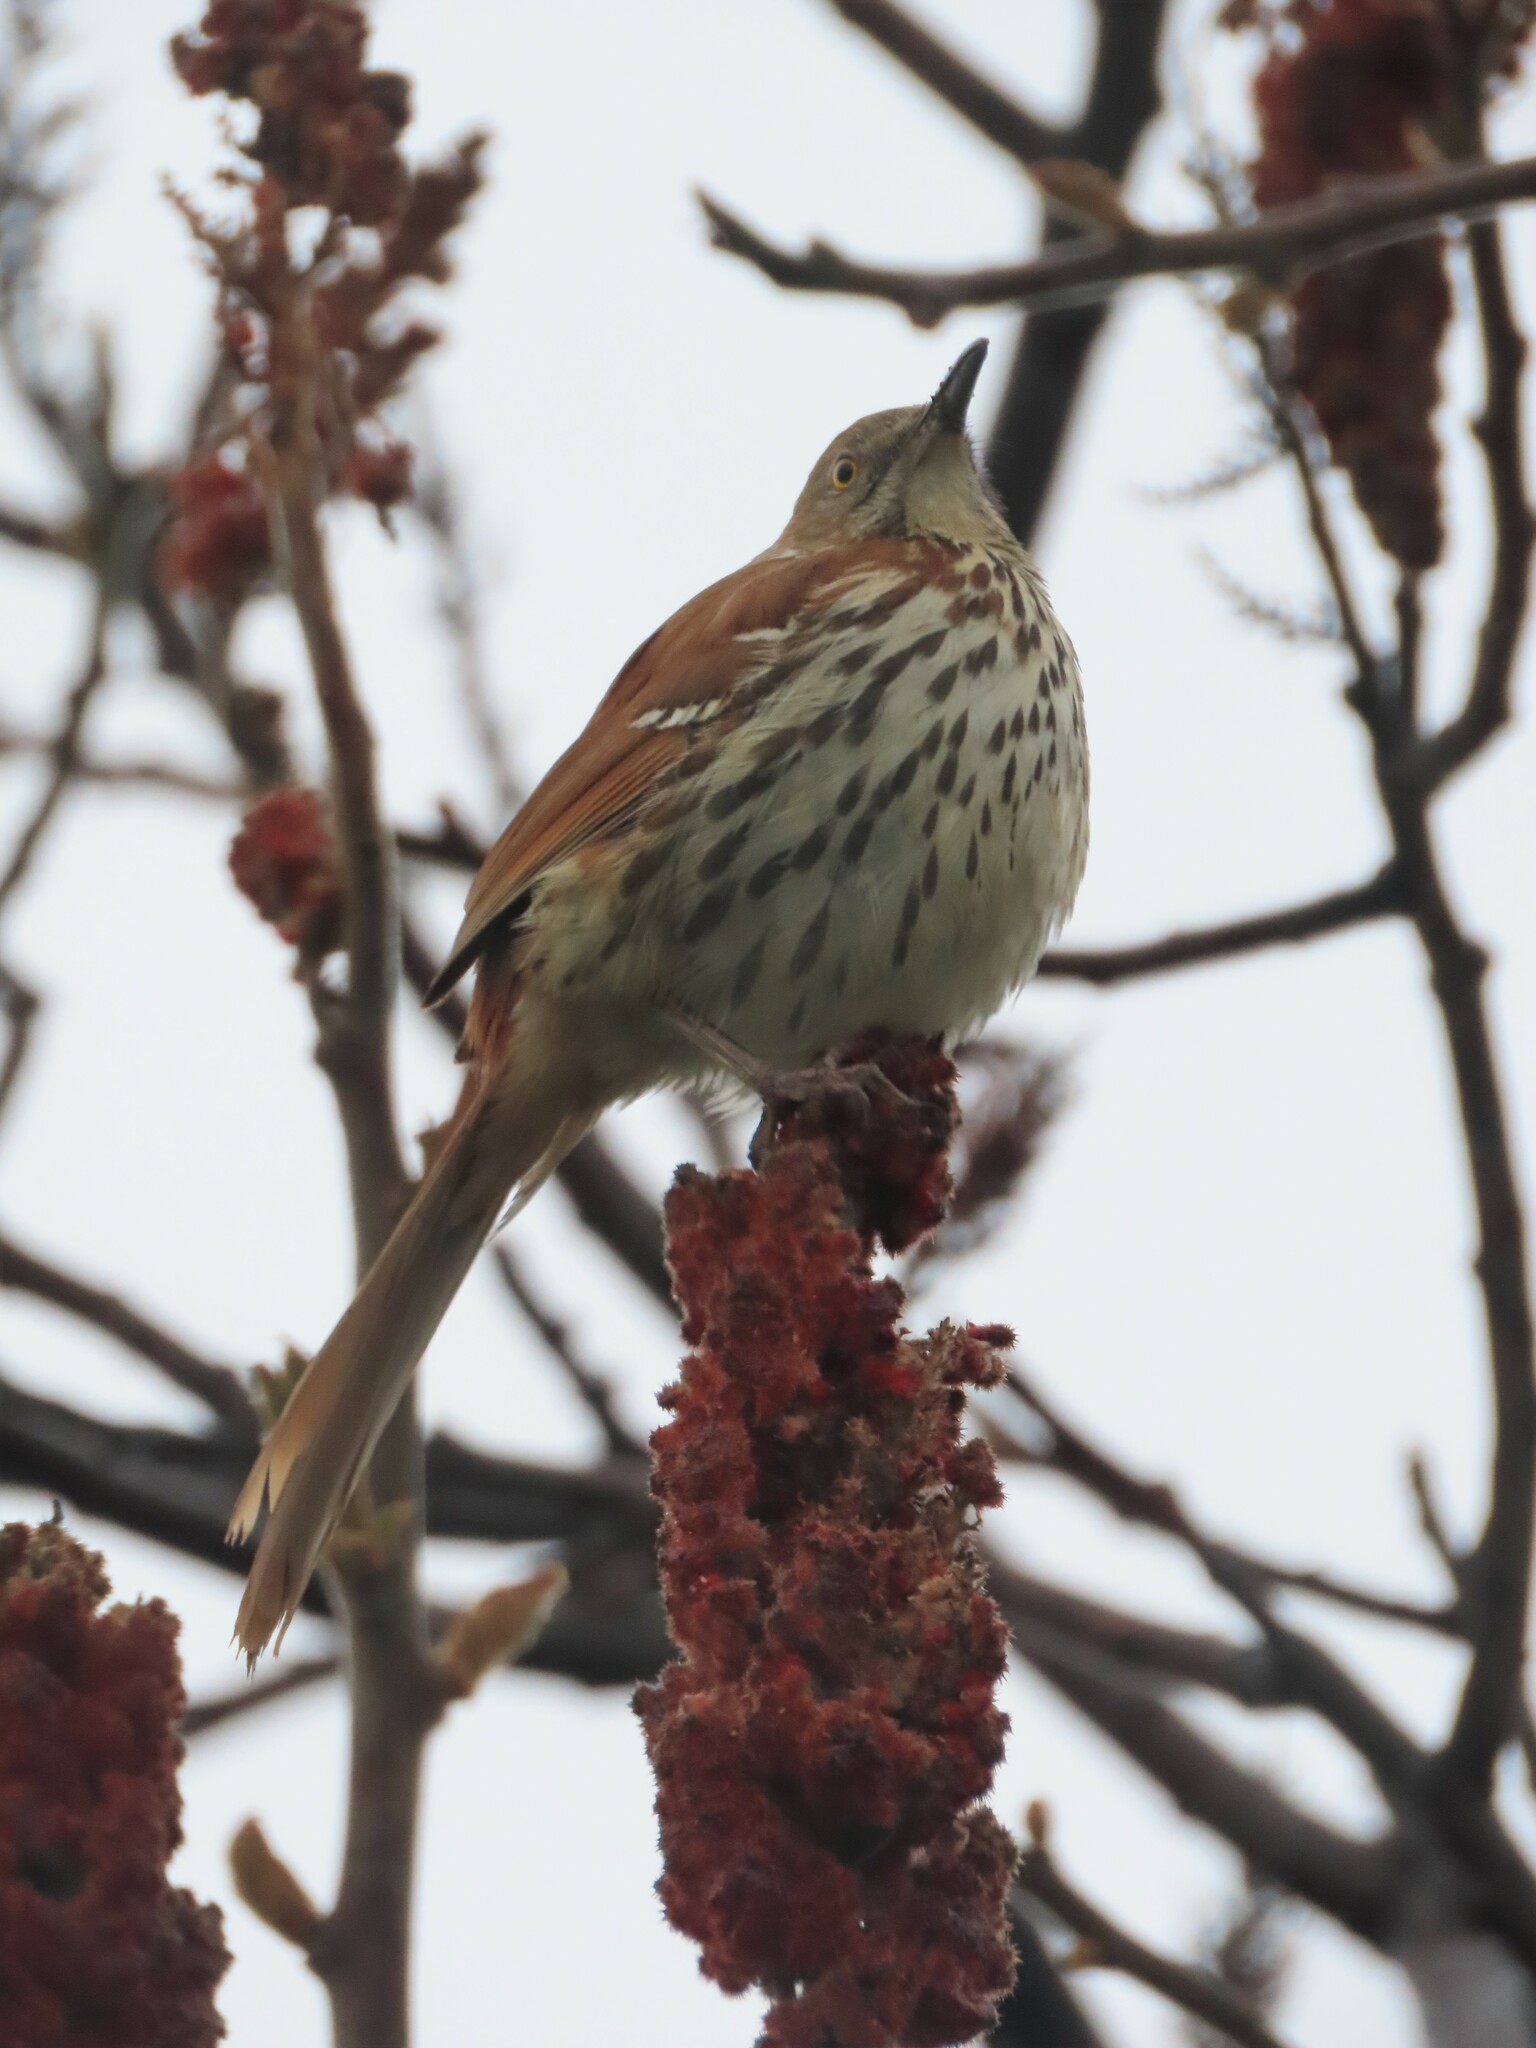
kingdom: Animalia
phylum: Chordata
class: Aves
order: Passeriformes
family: Mimidae
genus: Toxostoma
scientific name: Toxostoma rufum
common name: Brown thrasher
